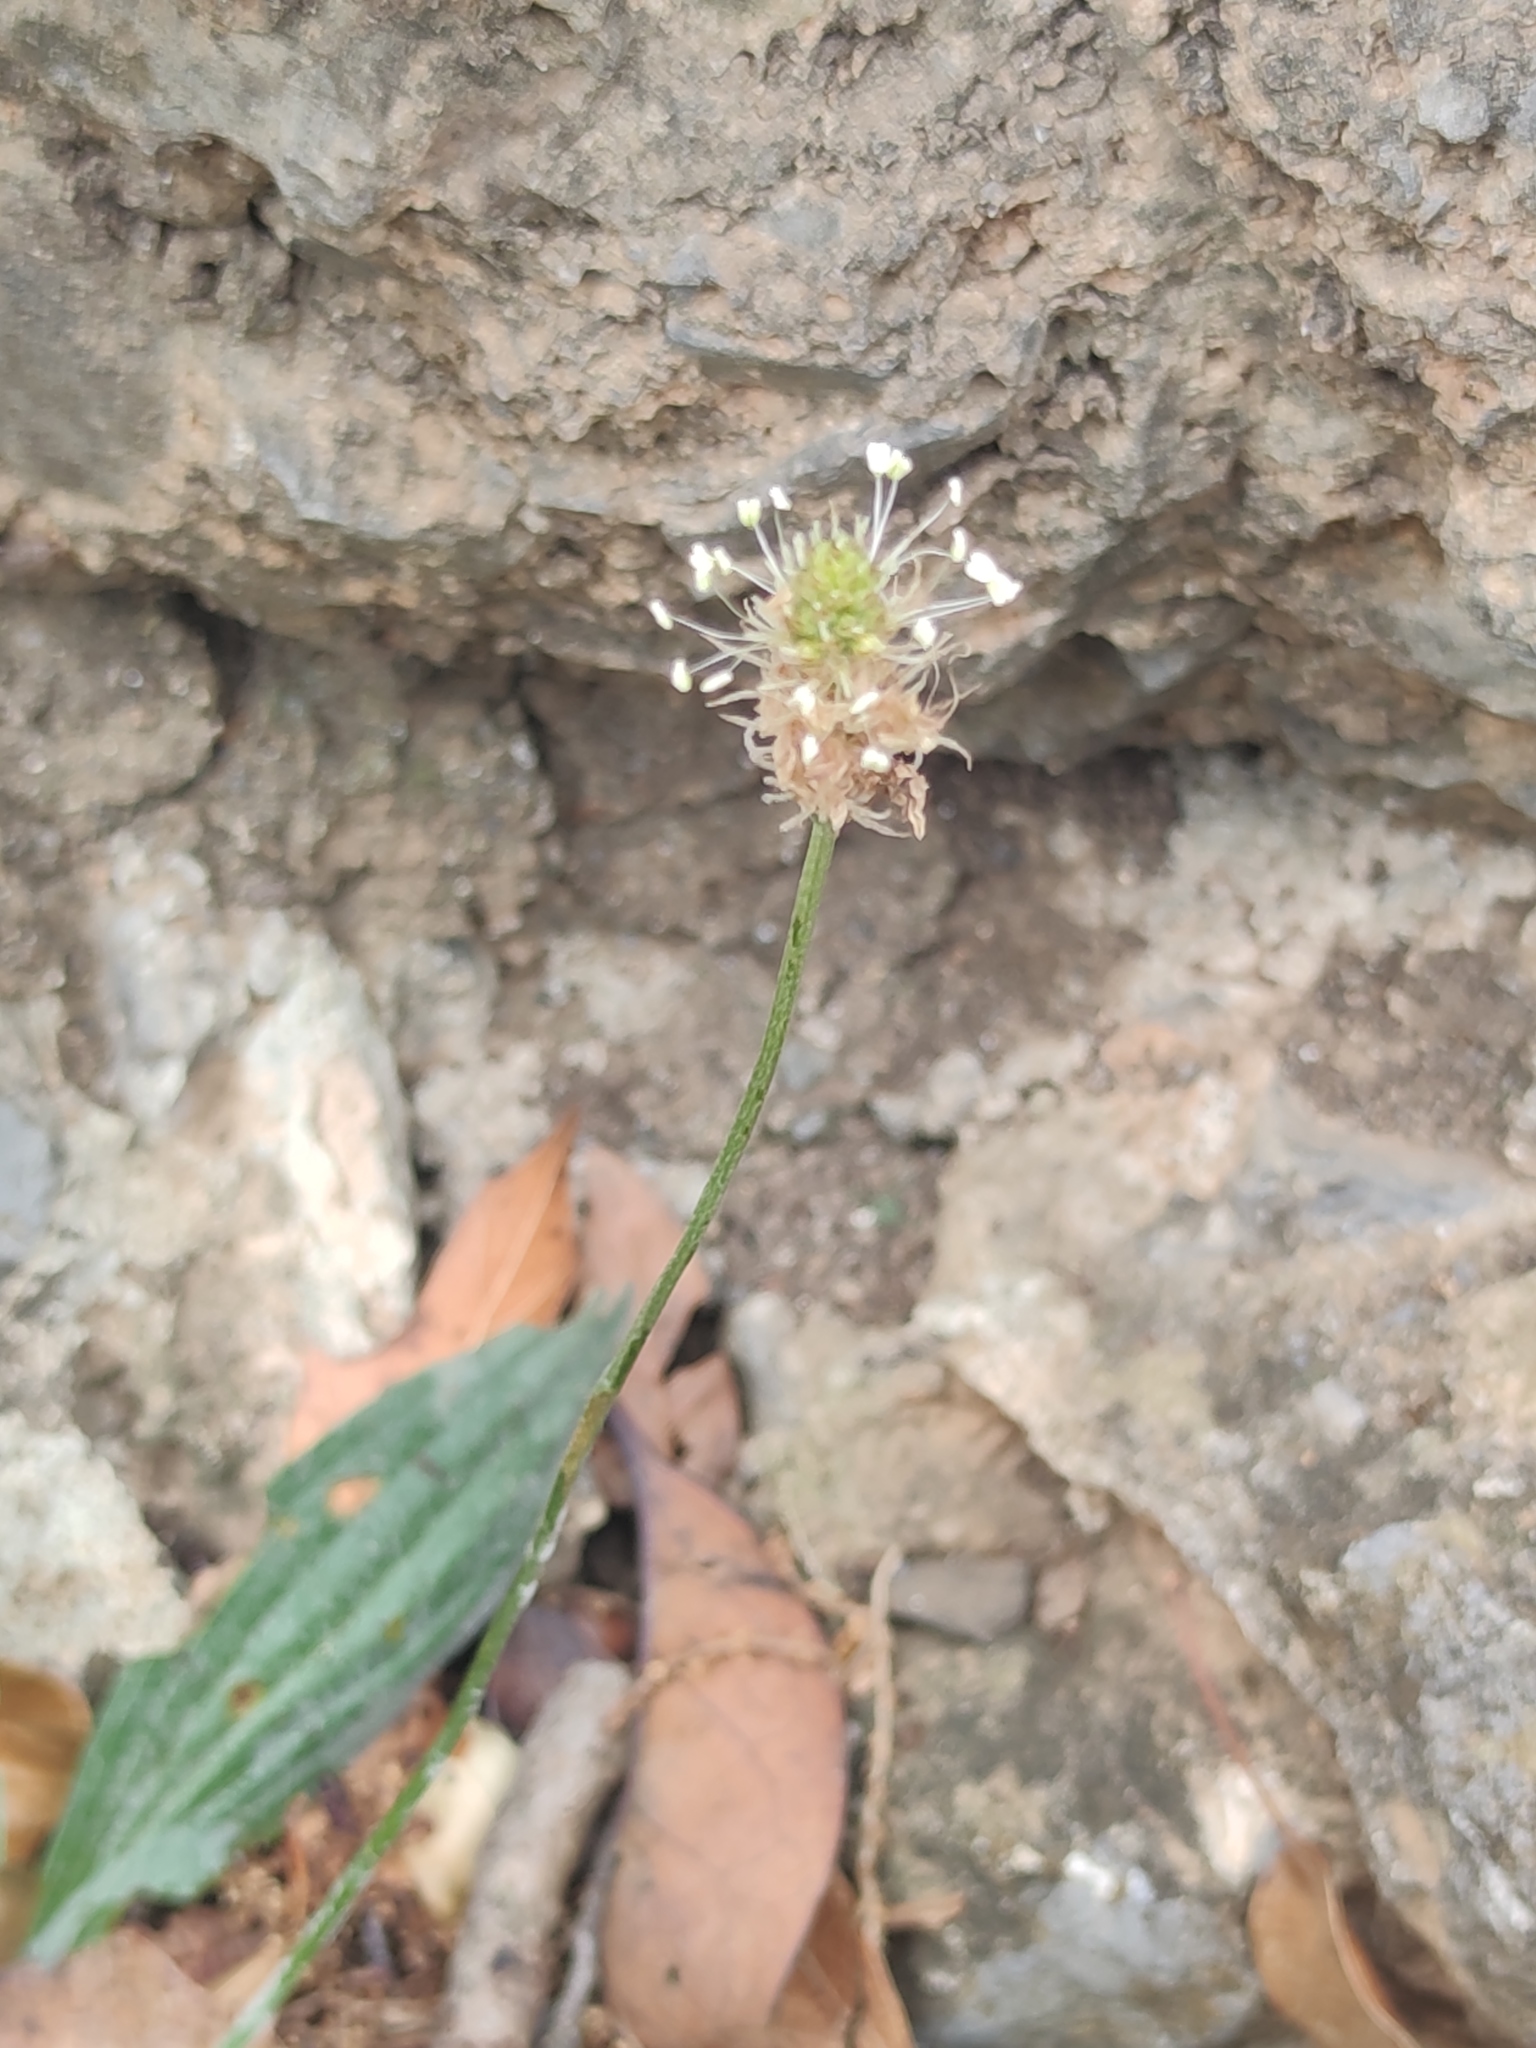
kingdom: Plantae
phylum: Tracheophyta
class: Magnoliopsida
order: Lamiales
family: Plantaginaceae
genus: Plantago
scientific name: Plantago lanceolata
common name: Ribwort plantain
